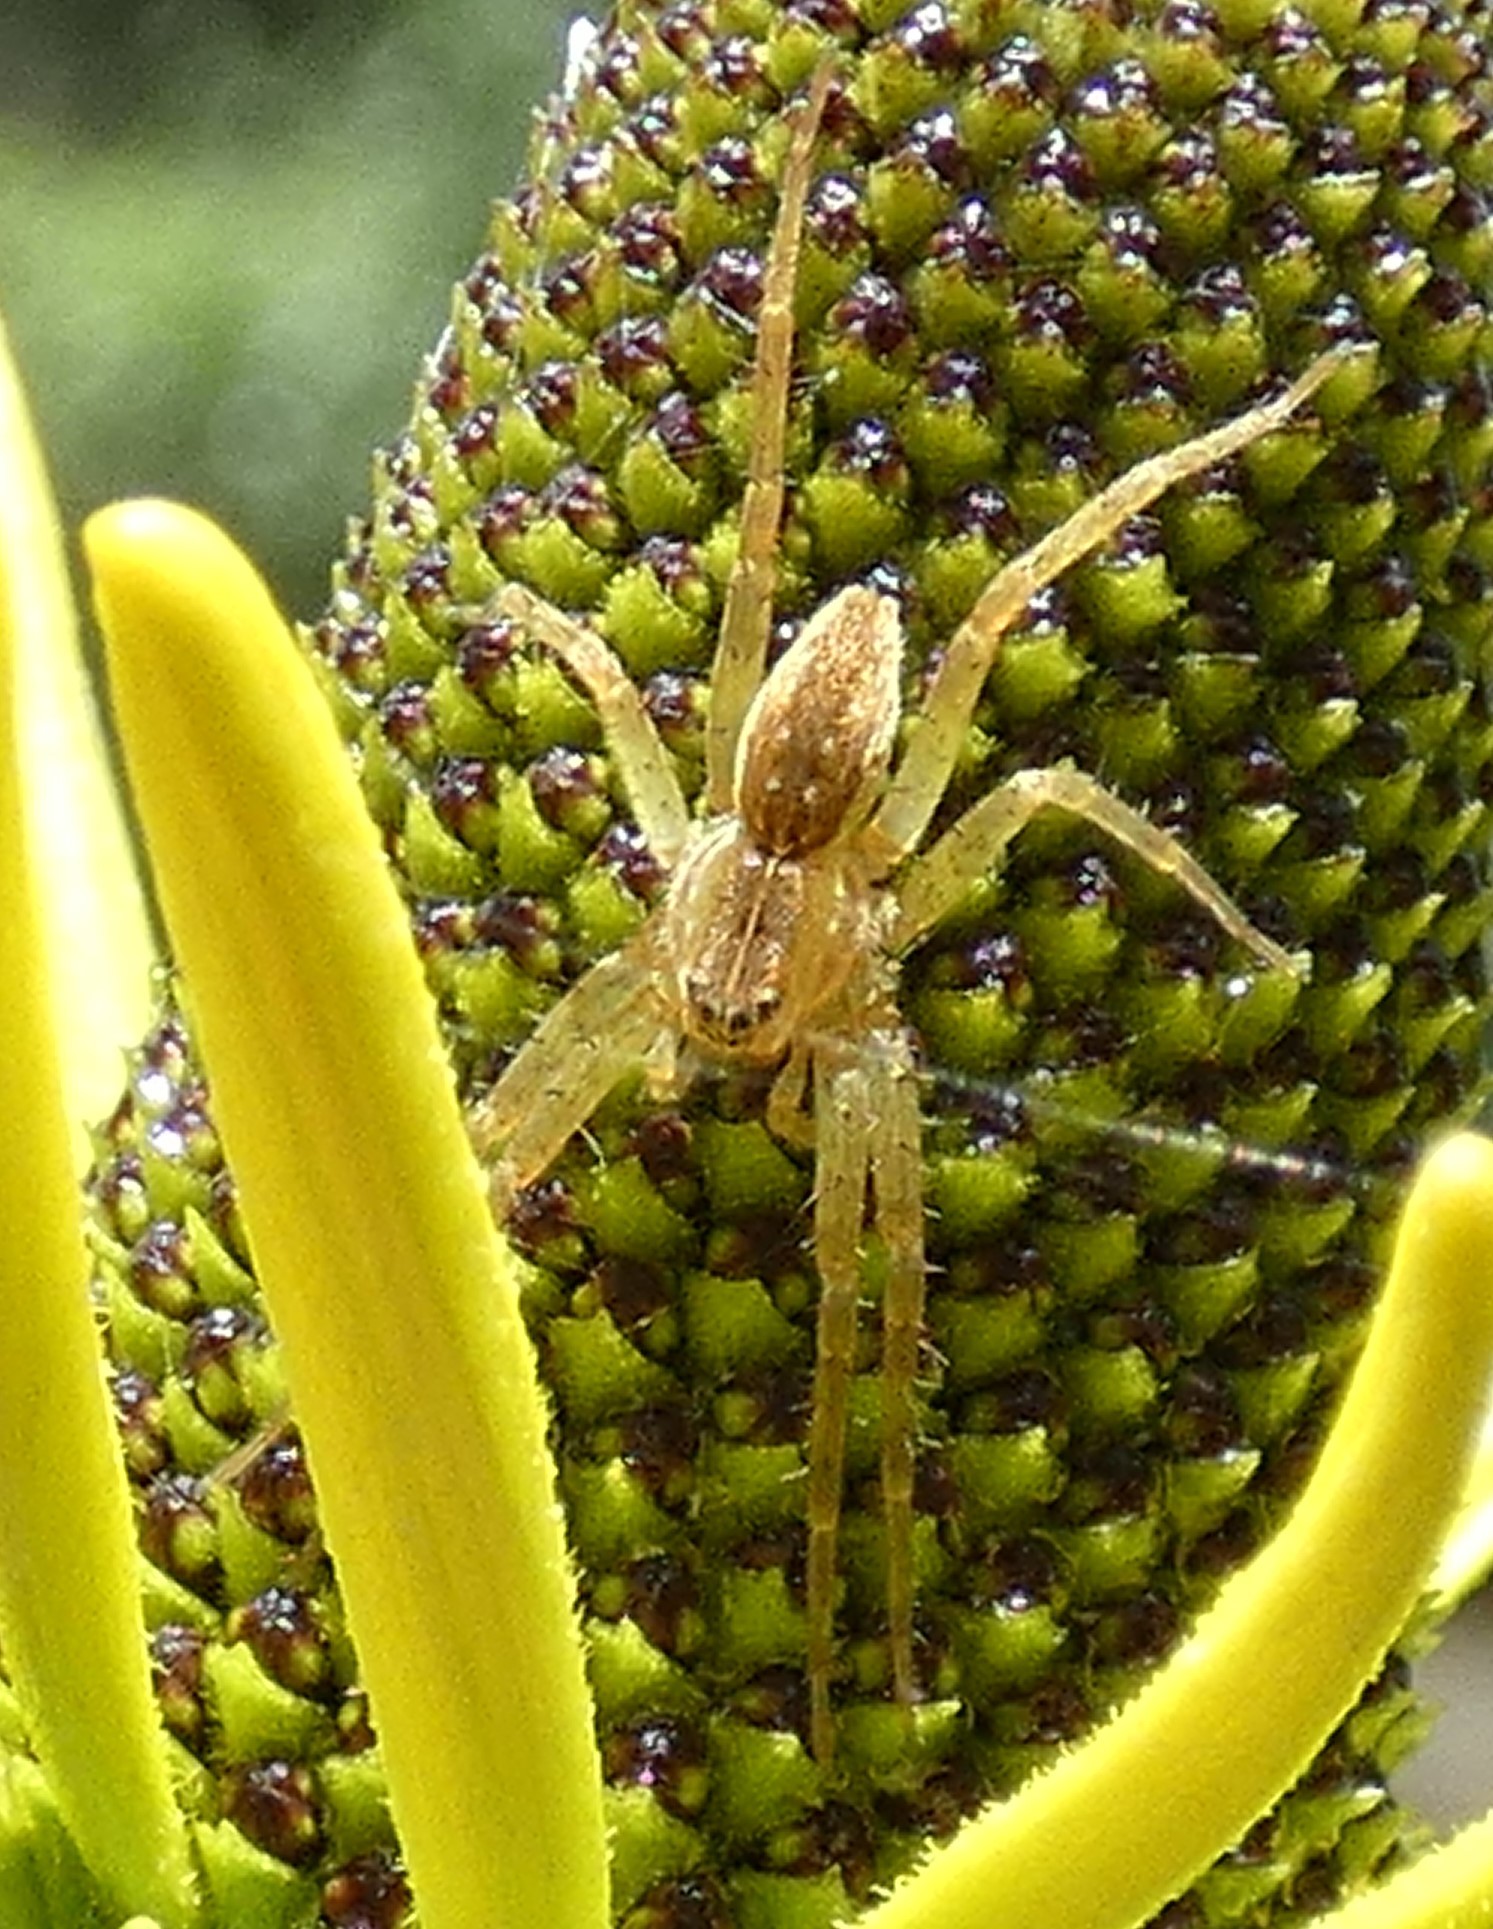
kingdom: Animalia
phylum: Arthropoda
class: Arachnida
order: Araneae
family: Pisauridae
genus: Dolomedes
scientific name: Dolomedes triton
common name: Six-spotted fishing spider
